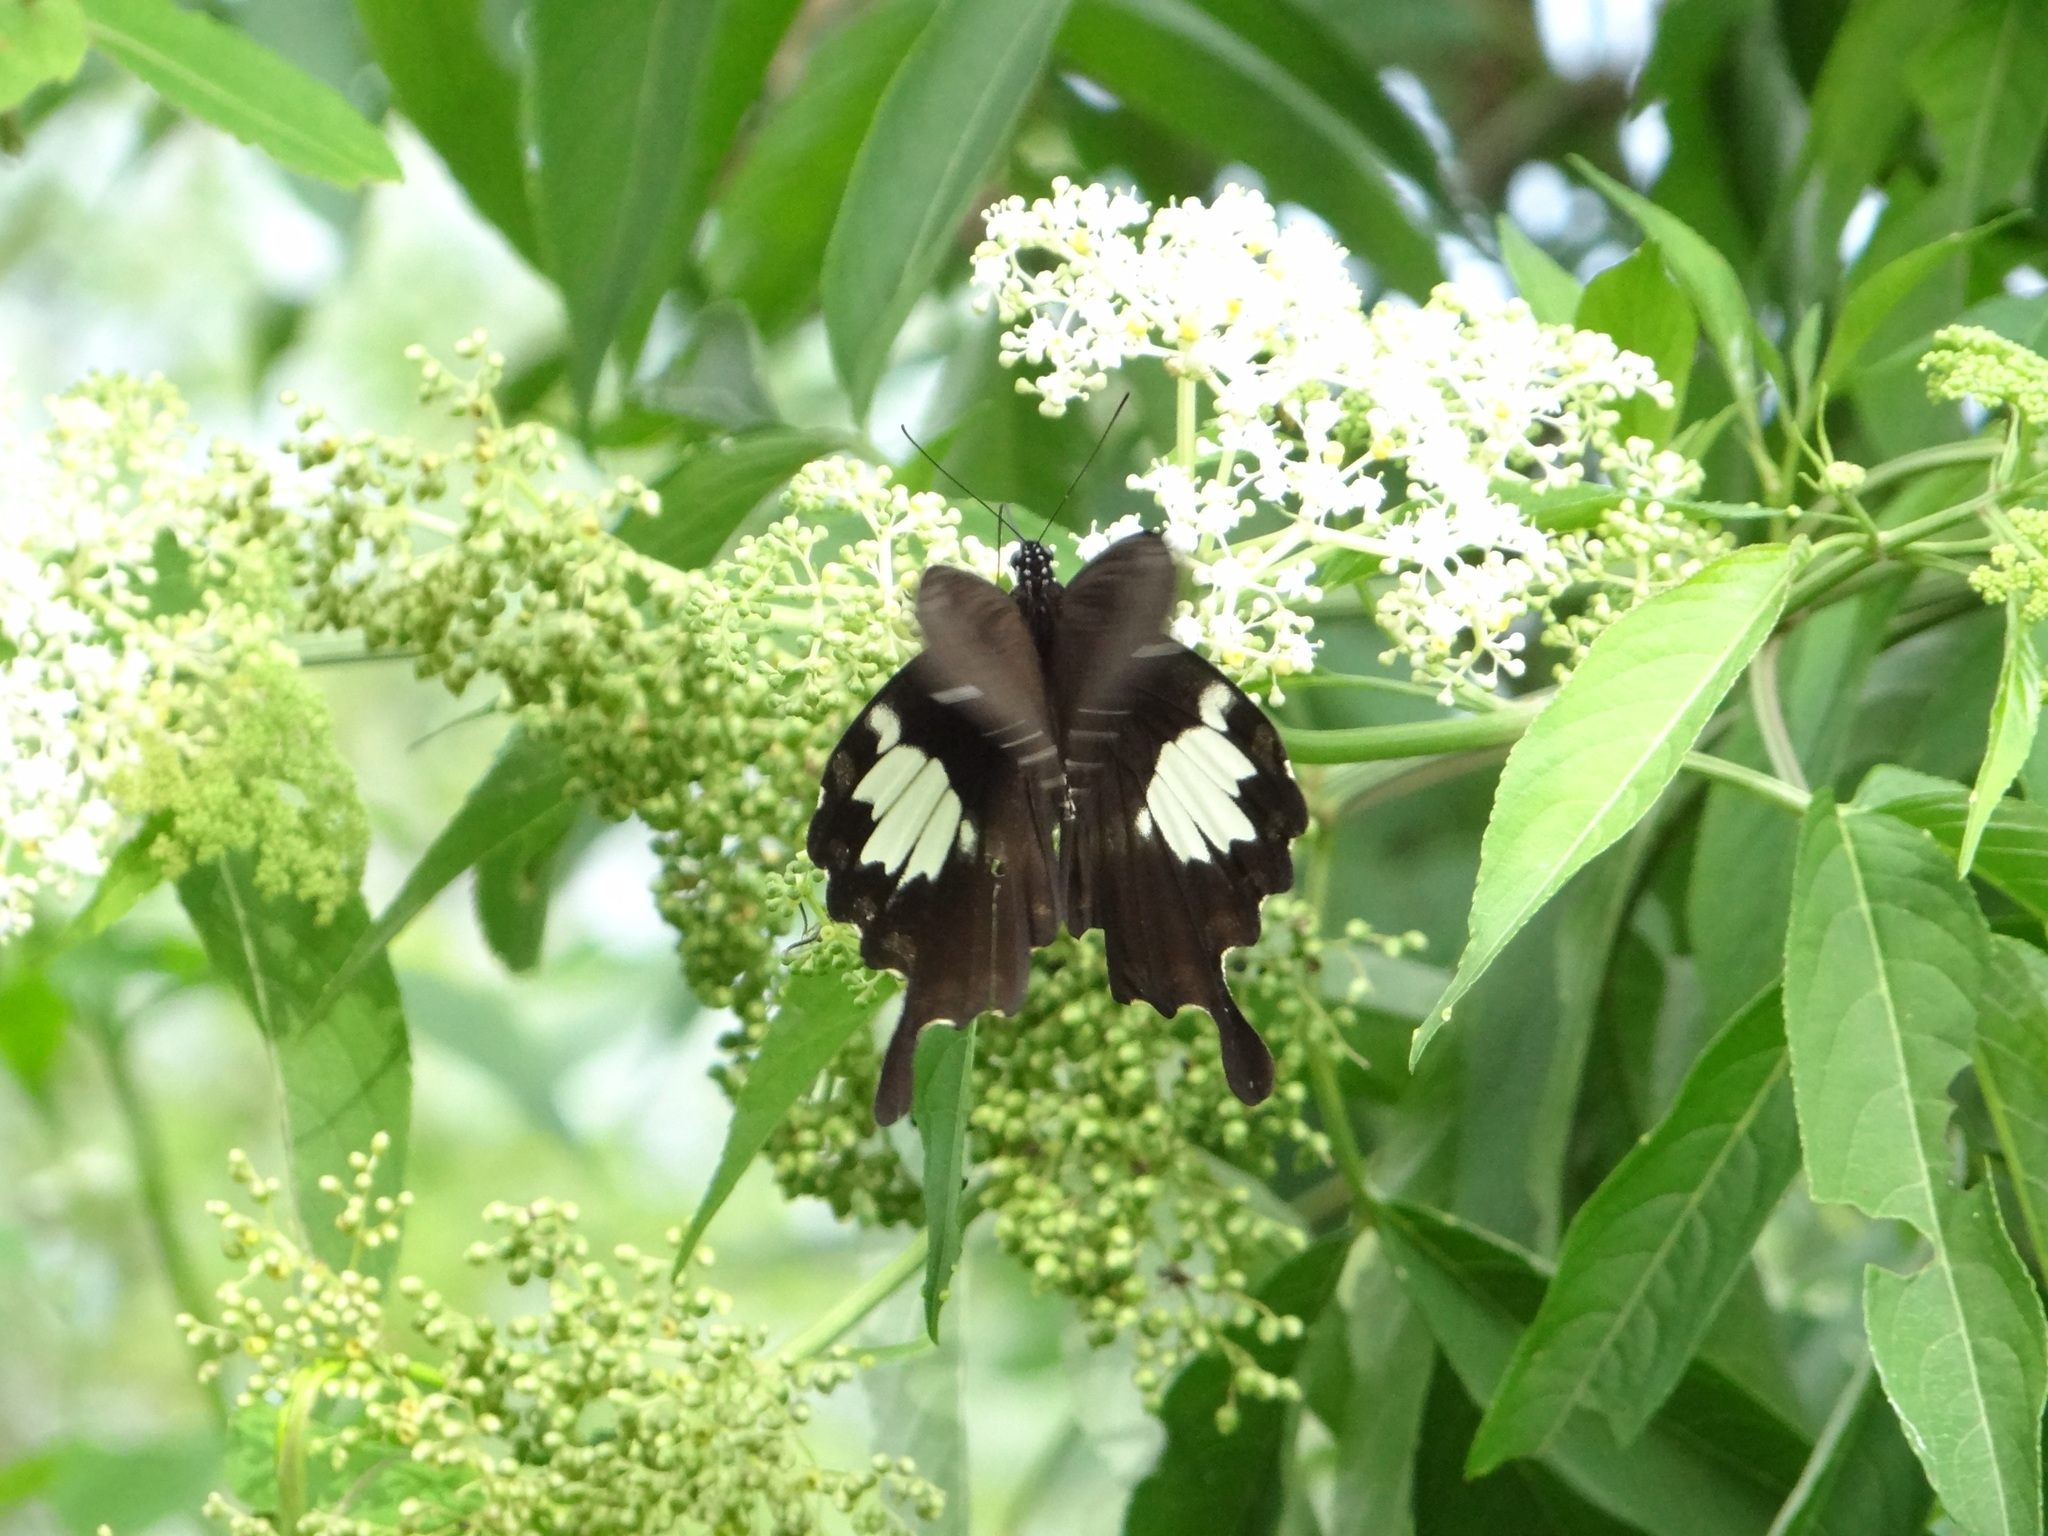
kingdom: Animalia
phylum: Arthropoda
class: Insecta
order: Lepidoptera
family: Papilionidae
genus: Papilio
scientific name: Papilio nephelus
